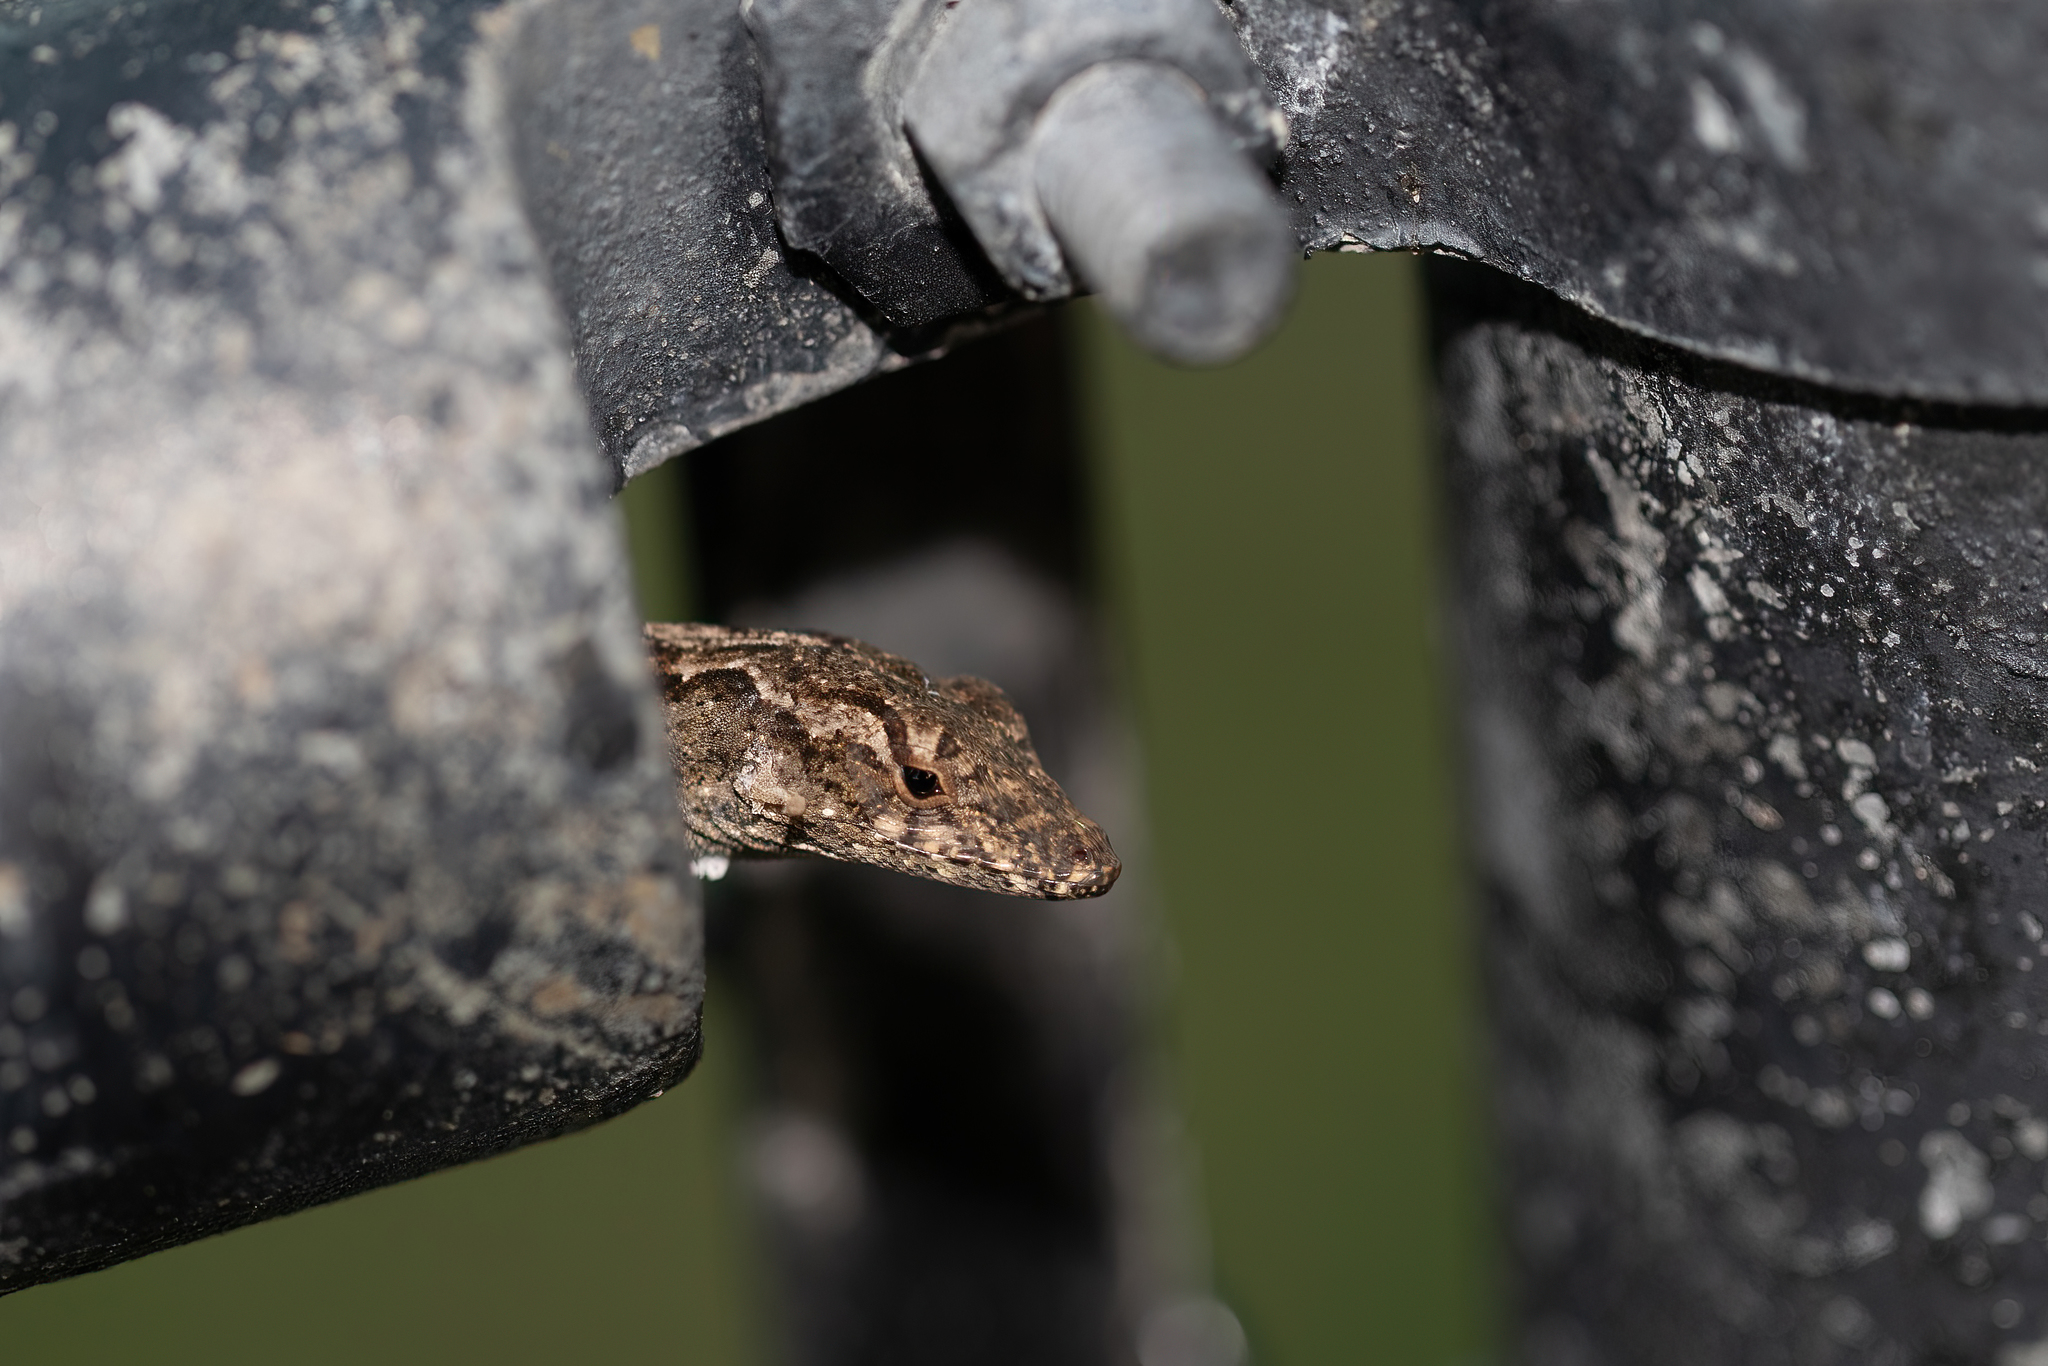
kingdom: Animalia
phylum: Chordata
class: Squamata
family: Dactyloidae
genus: Anolis
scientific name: Anolis sagrei
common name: Brown anole
